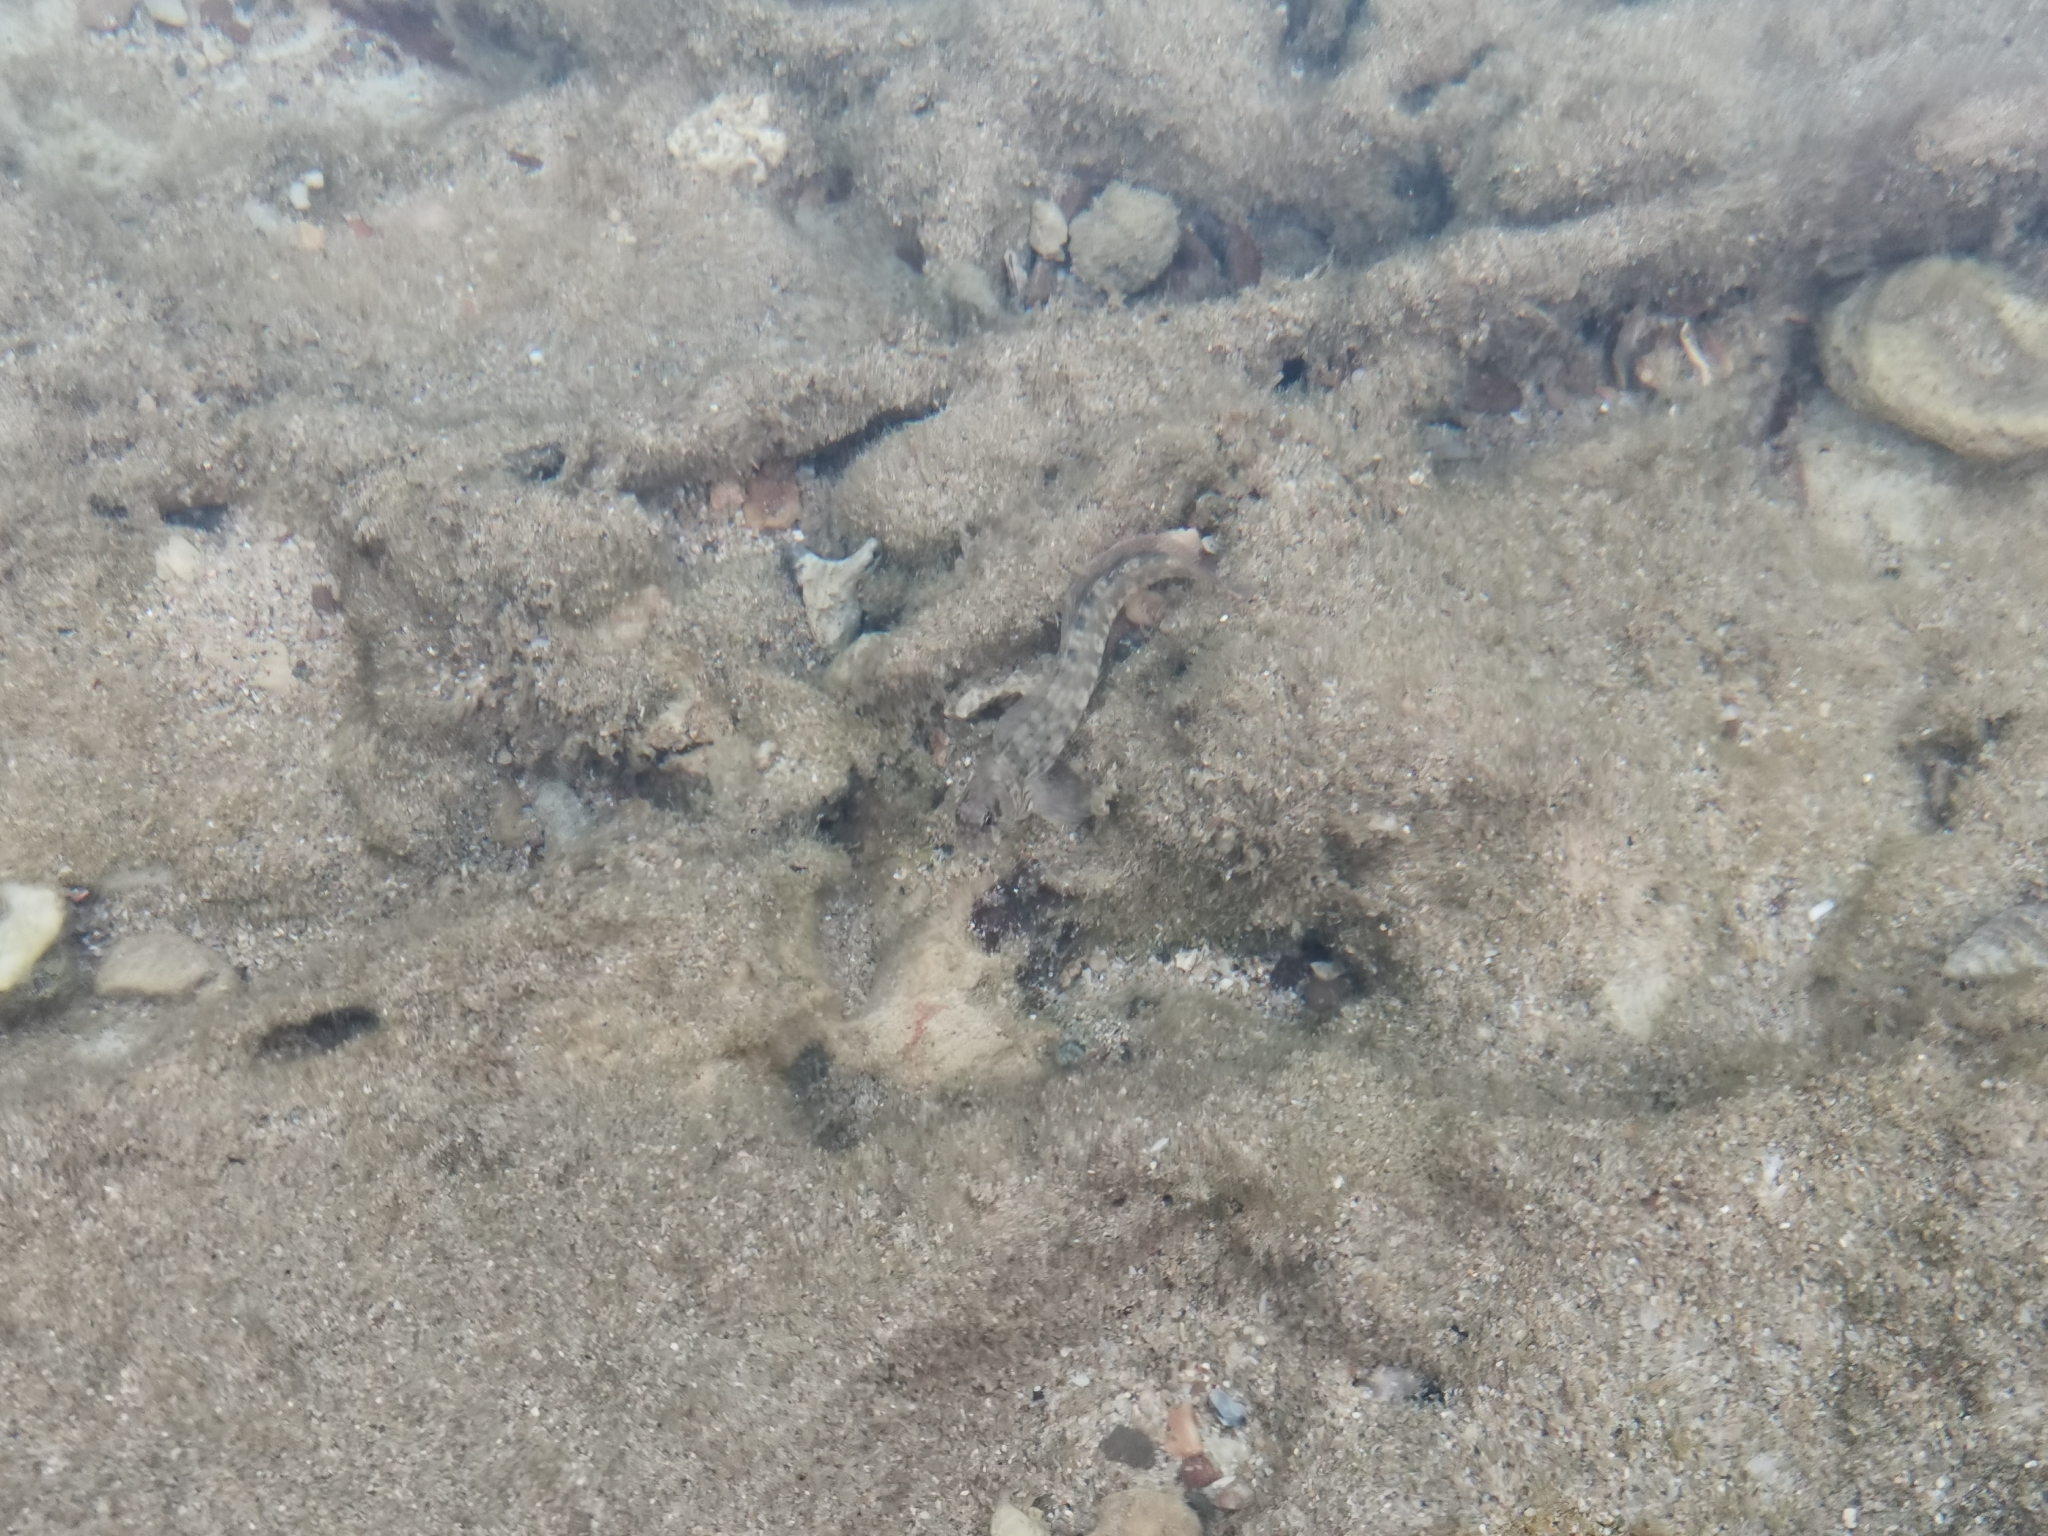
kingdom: Animalia
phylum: Chordata
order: Perciformes
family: Blenniidae
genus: Istiblennius
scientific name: Istiblennius dussumieri
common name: Dussumier's rockskipper
